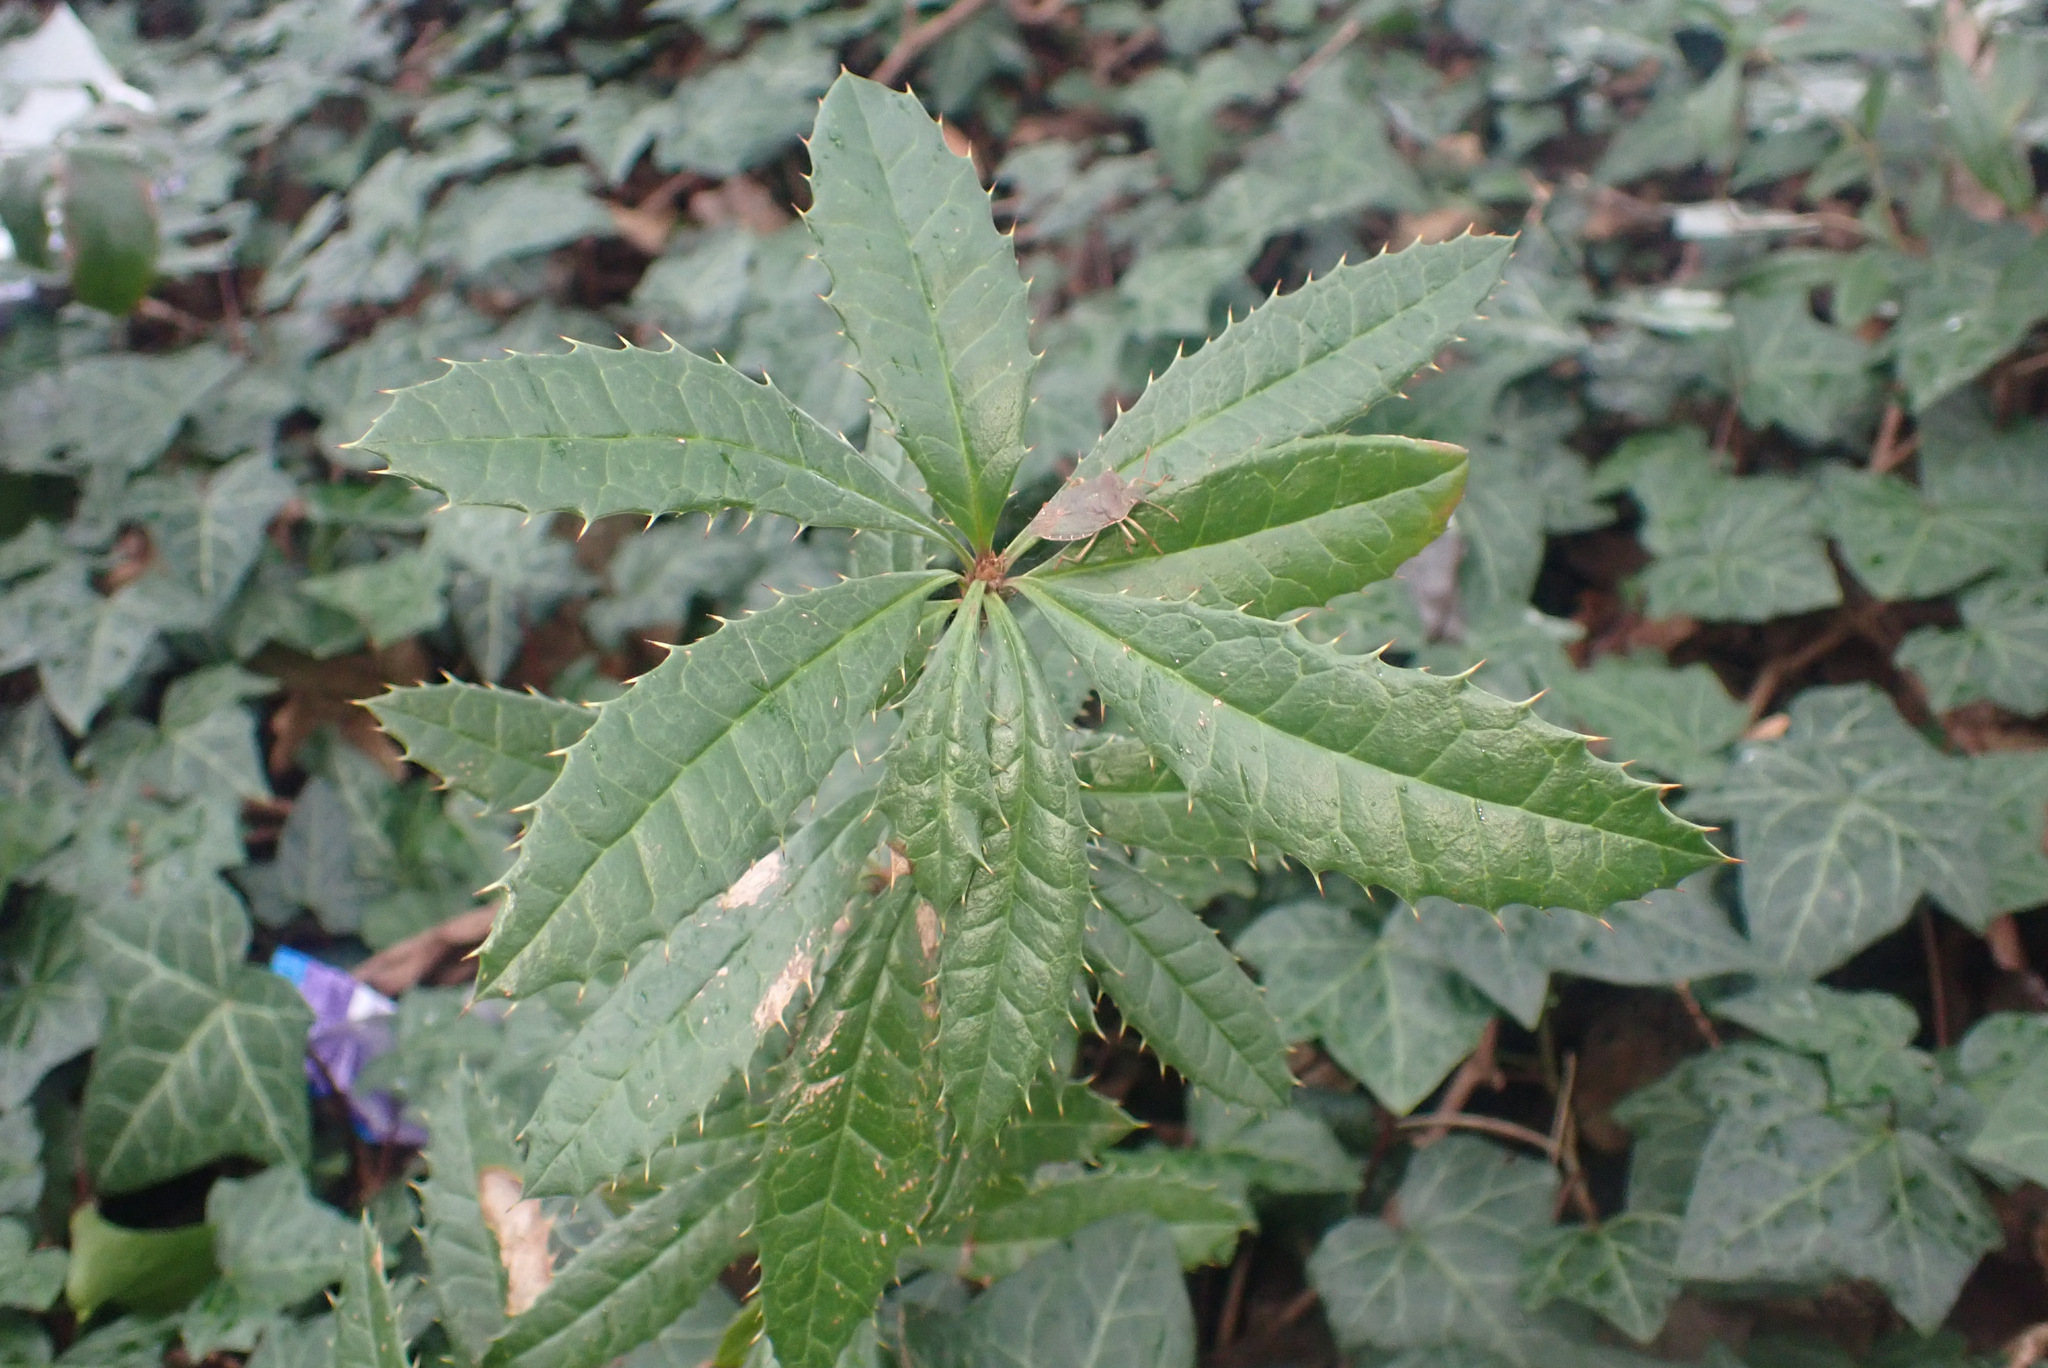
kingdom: Plantae
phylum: Tracheophyta
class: Magnoliopsida
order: Ranunculales
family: Berberidaceae
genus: Berberis
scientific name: Berberis julianae
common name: Wintergreen barberry
